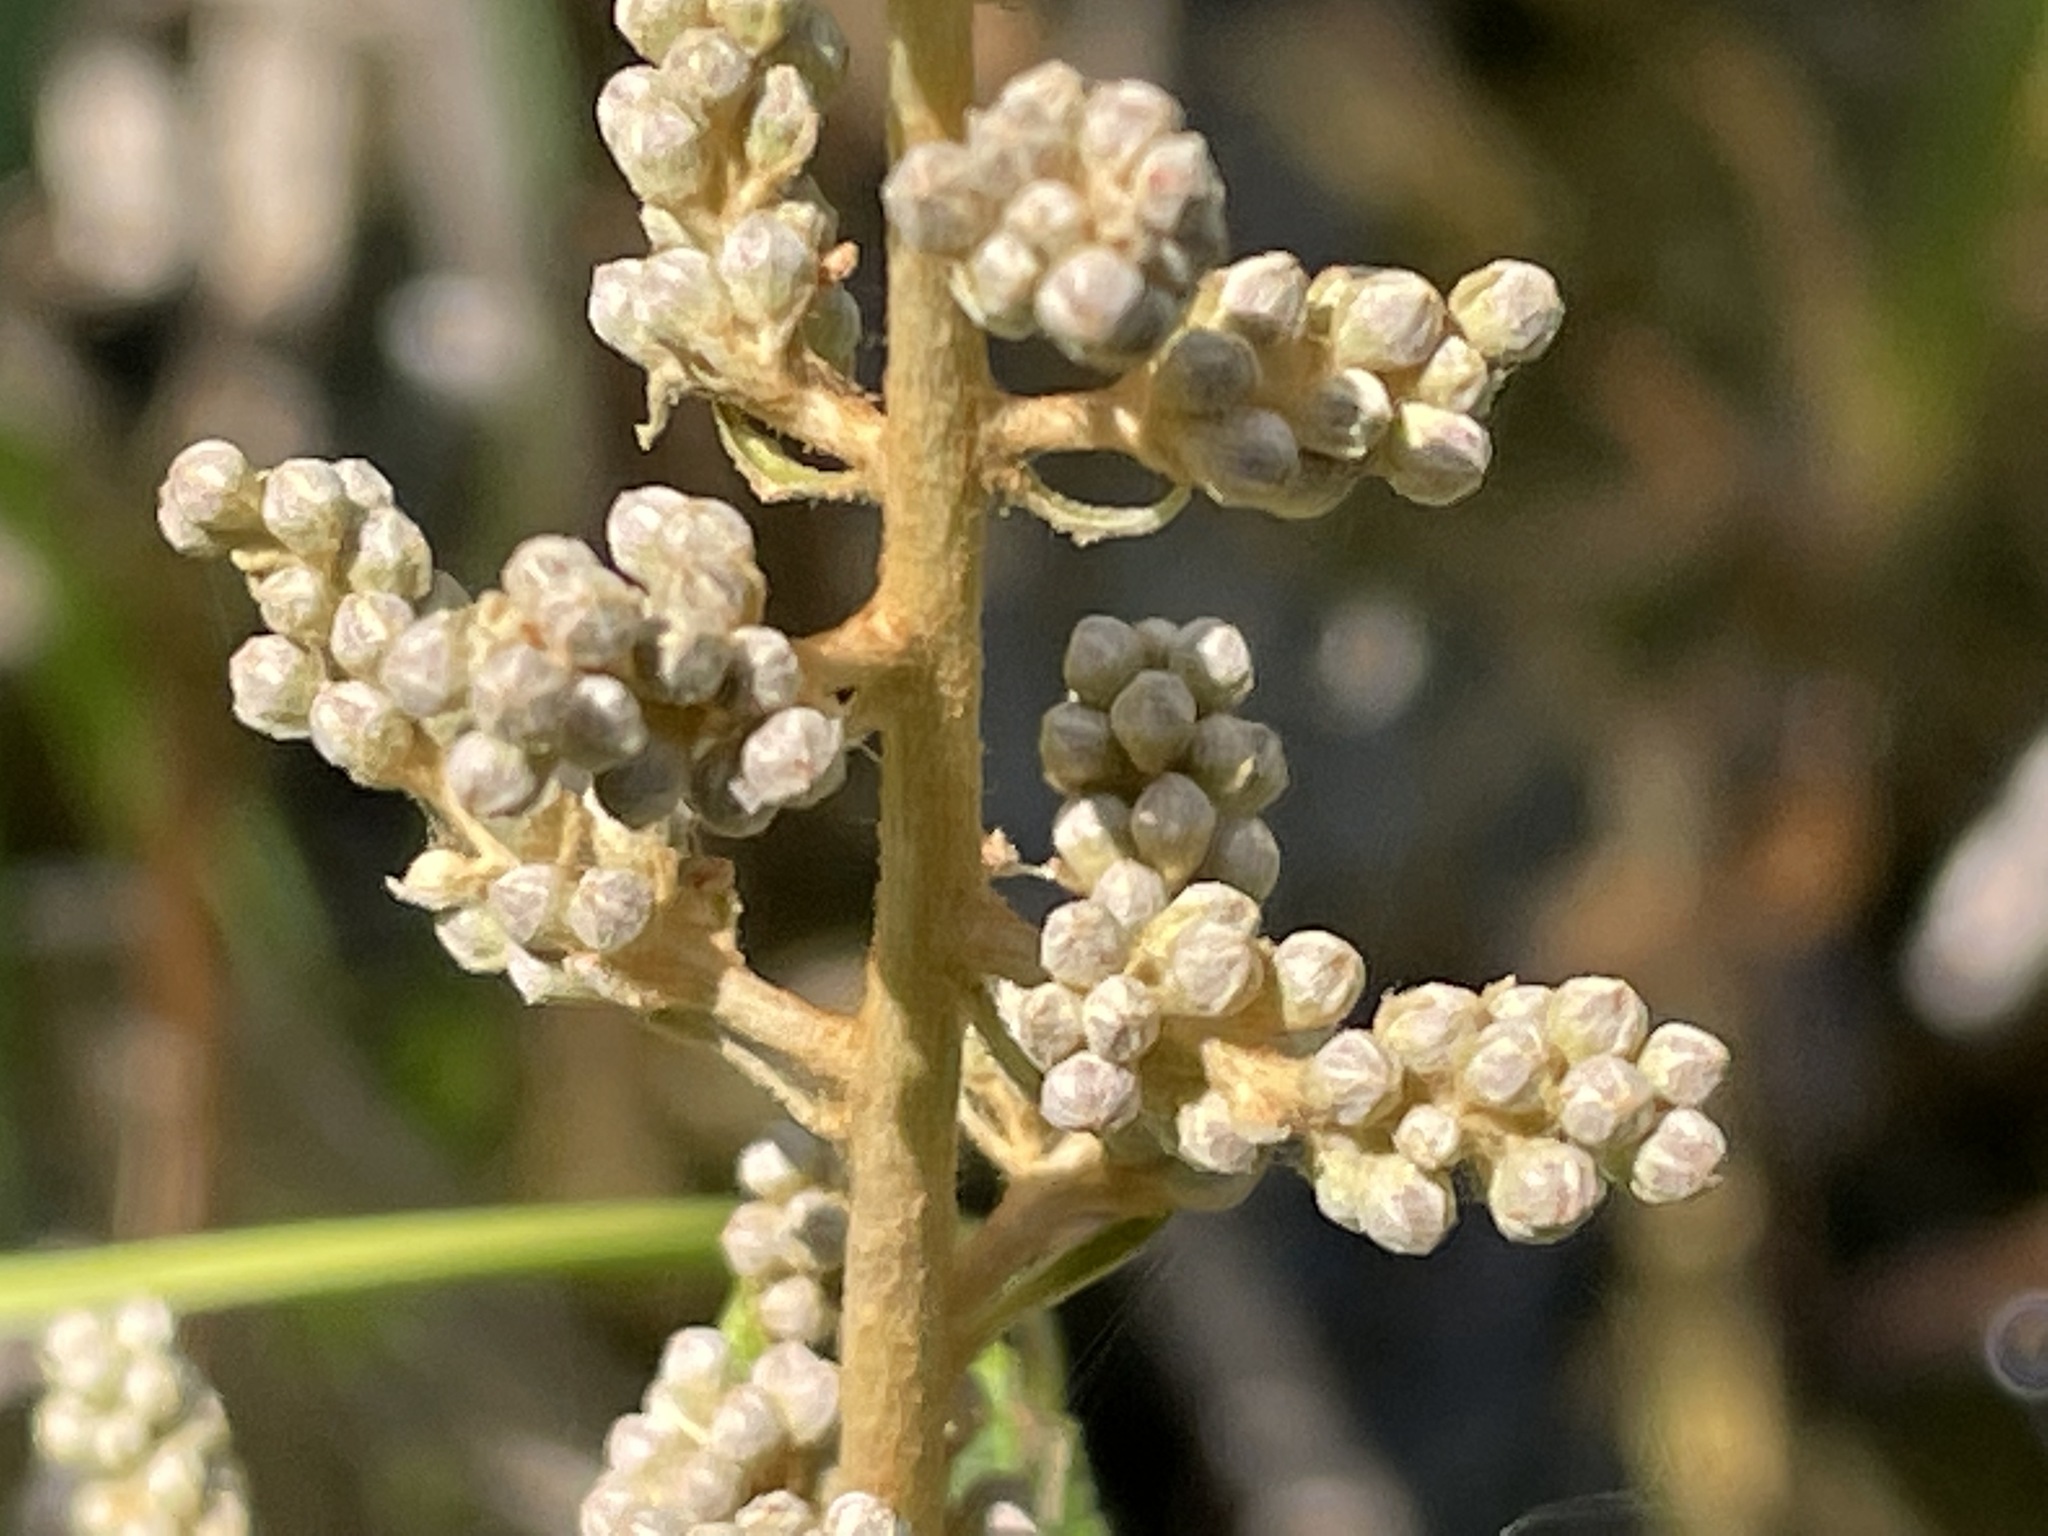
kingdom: Plantae
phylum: Tracheophyta
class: Magnoliopsida
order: Rosales
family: Rosaceae
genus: Spiraea
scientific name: Spiraea tomentosa
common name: Hardhack
